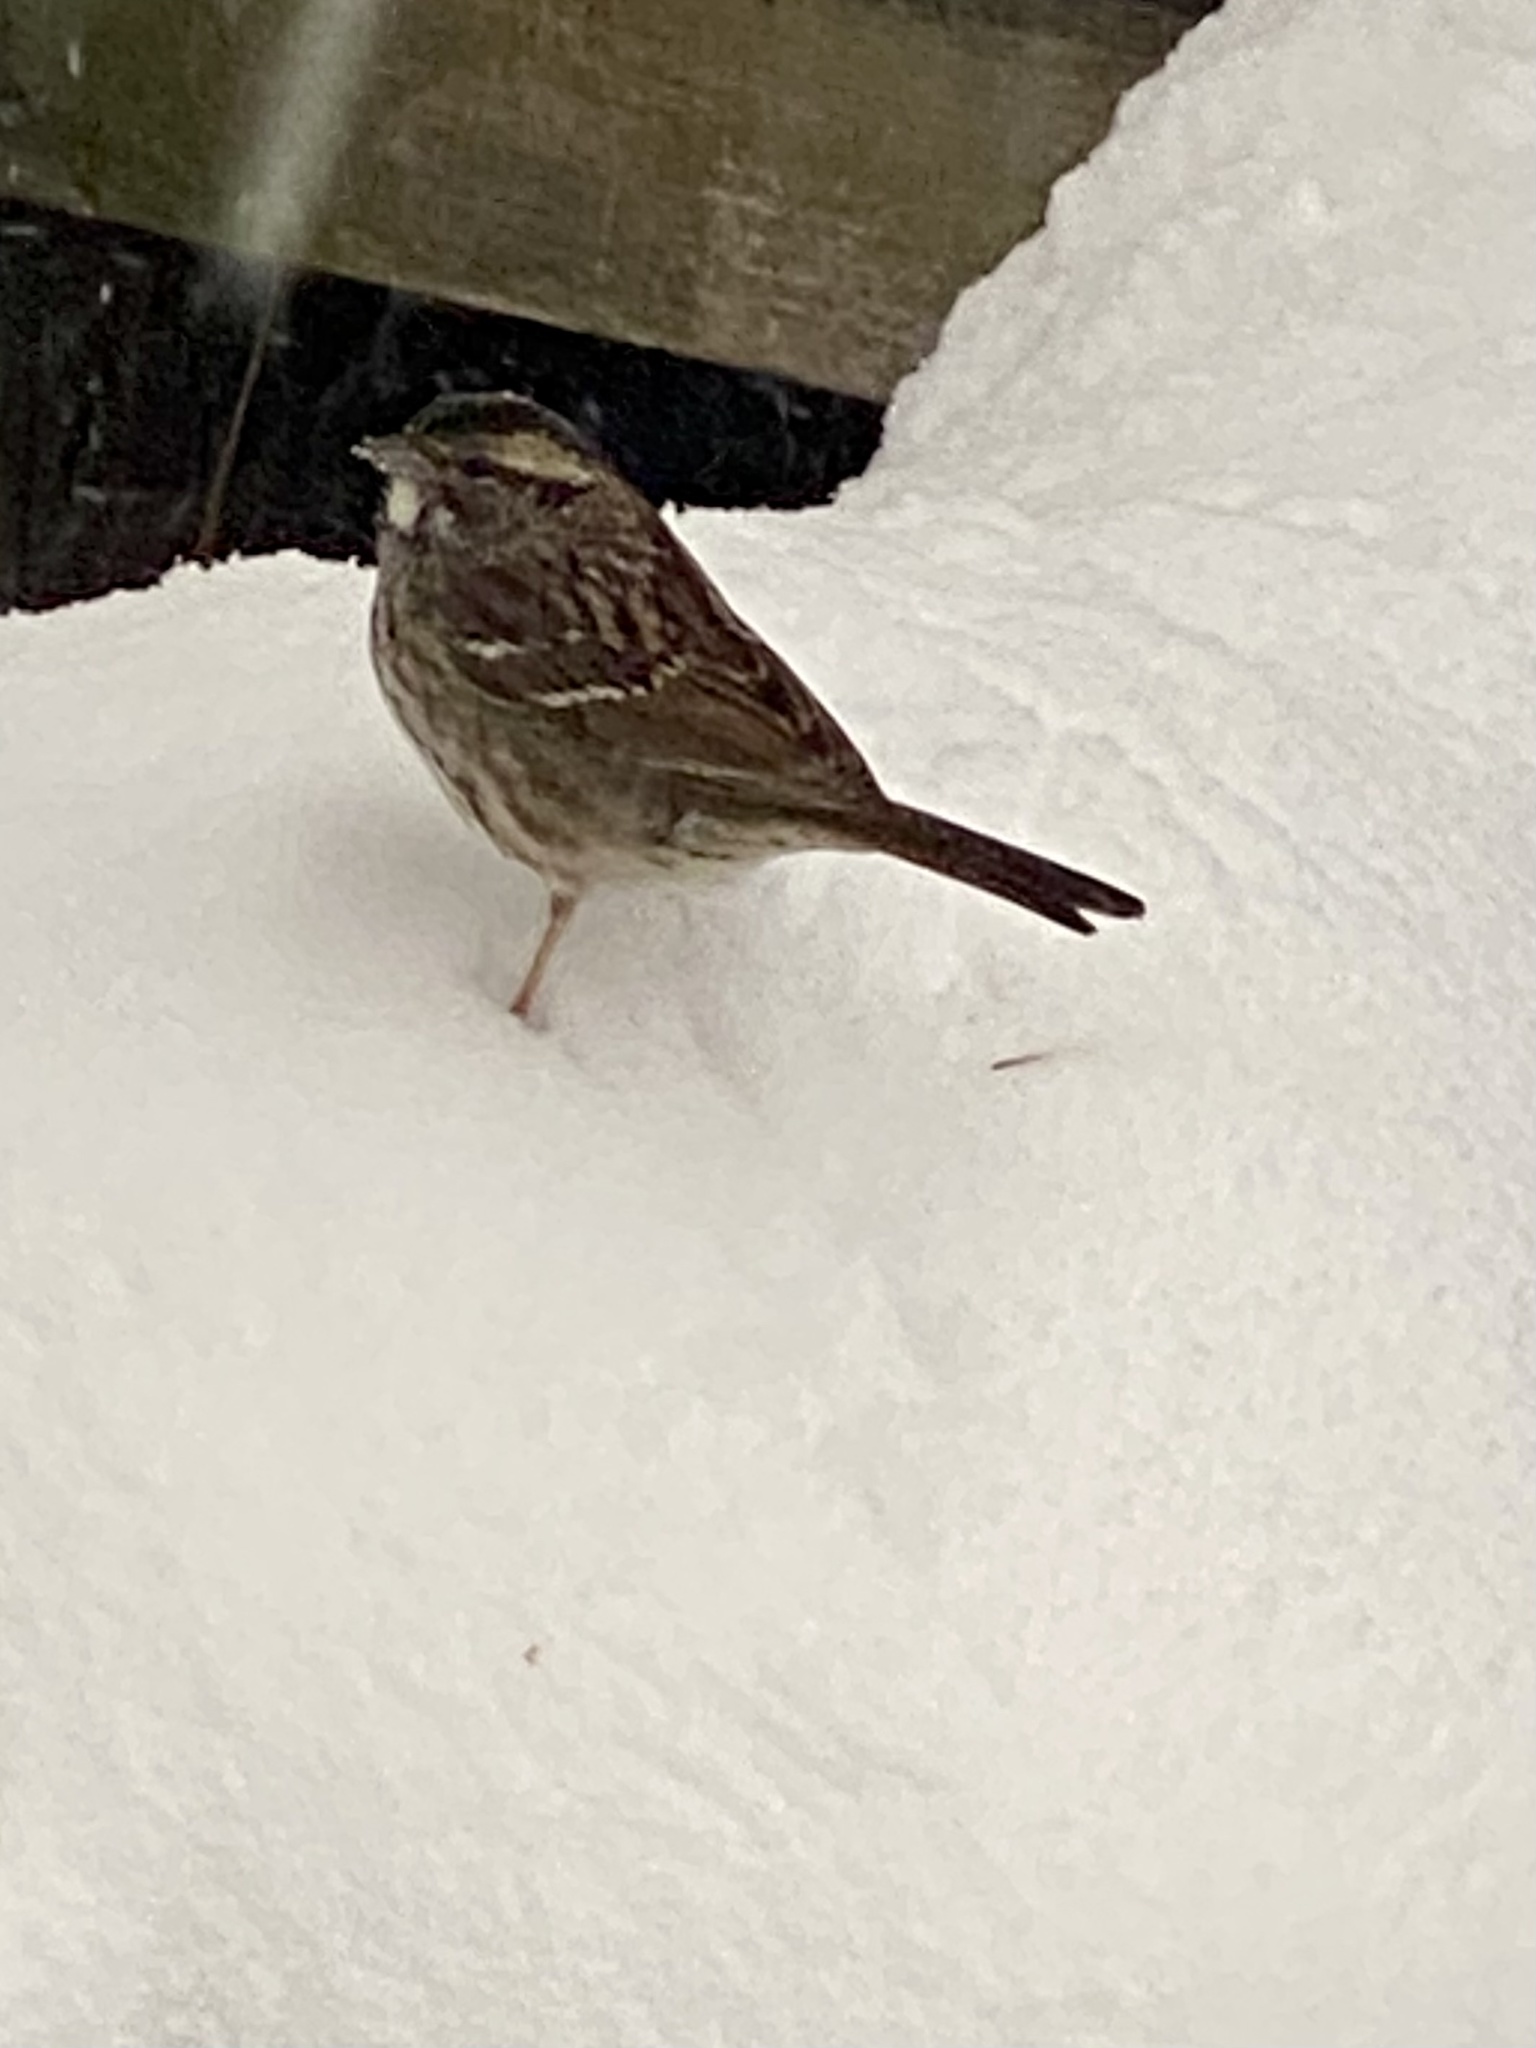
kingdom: Animalia
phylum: Chordata
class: Aves
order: Passeriformes
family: Passerellidae
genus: Zonotrichia
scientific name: Zonotrichia albicollis
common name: White-throated sparrow
